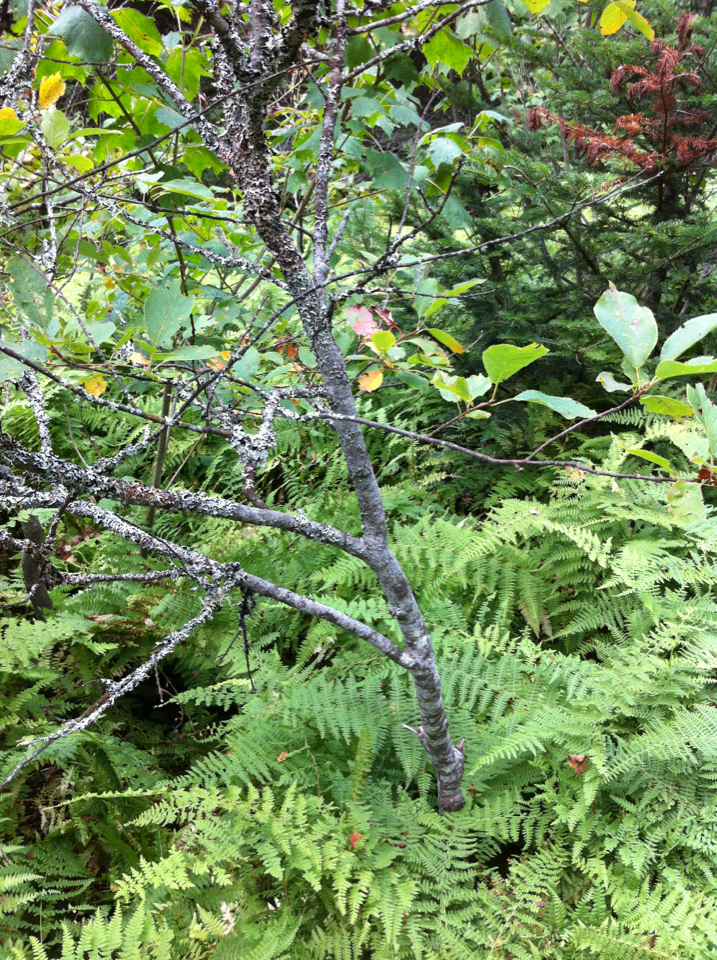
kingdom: Plantae
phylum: Tracheophyta
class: Magnoliopsida
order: Rosales
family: Rosaceae
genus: Prunus
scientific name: Prunus virginiana
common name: Chokecherry
